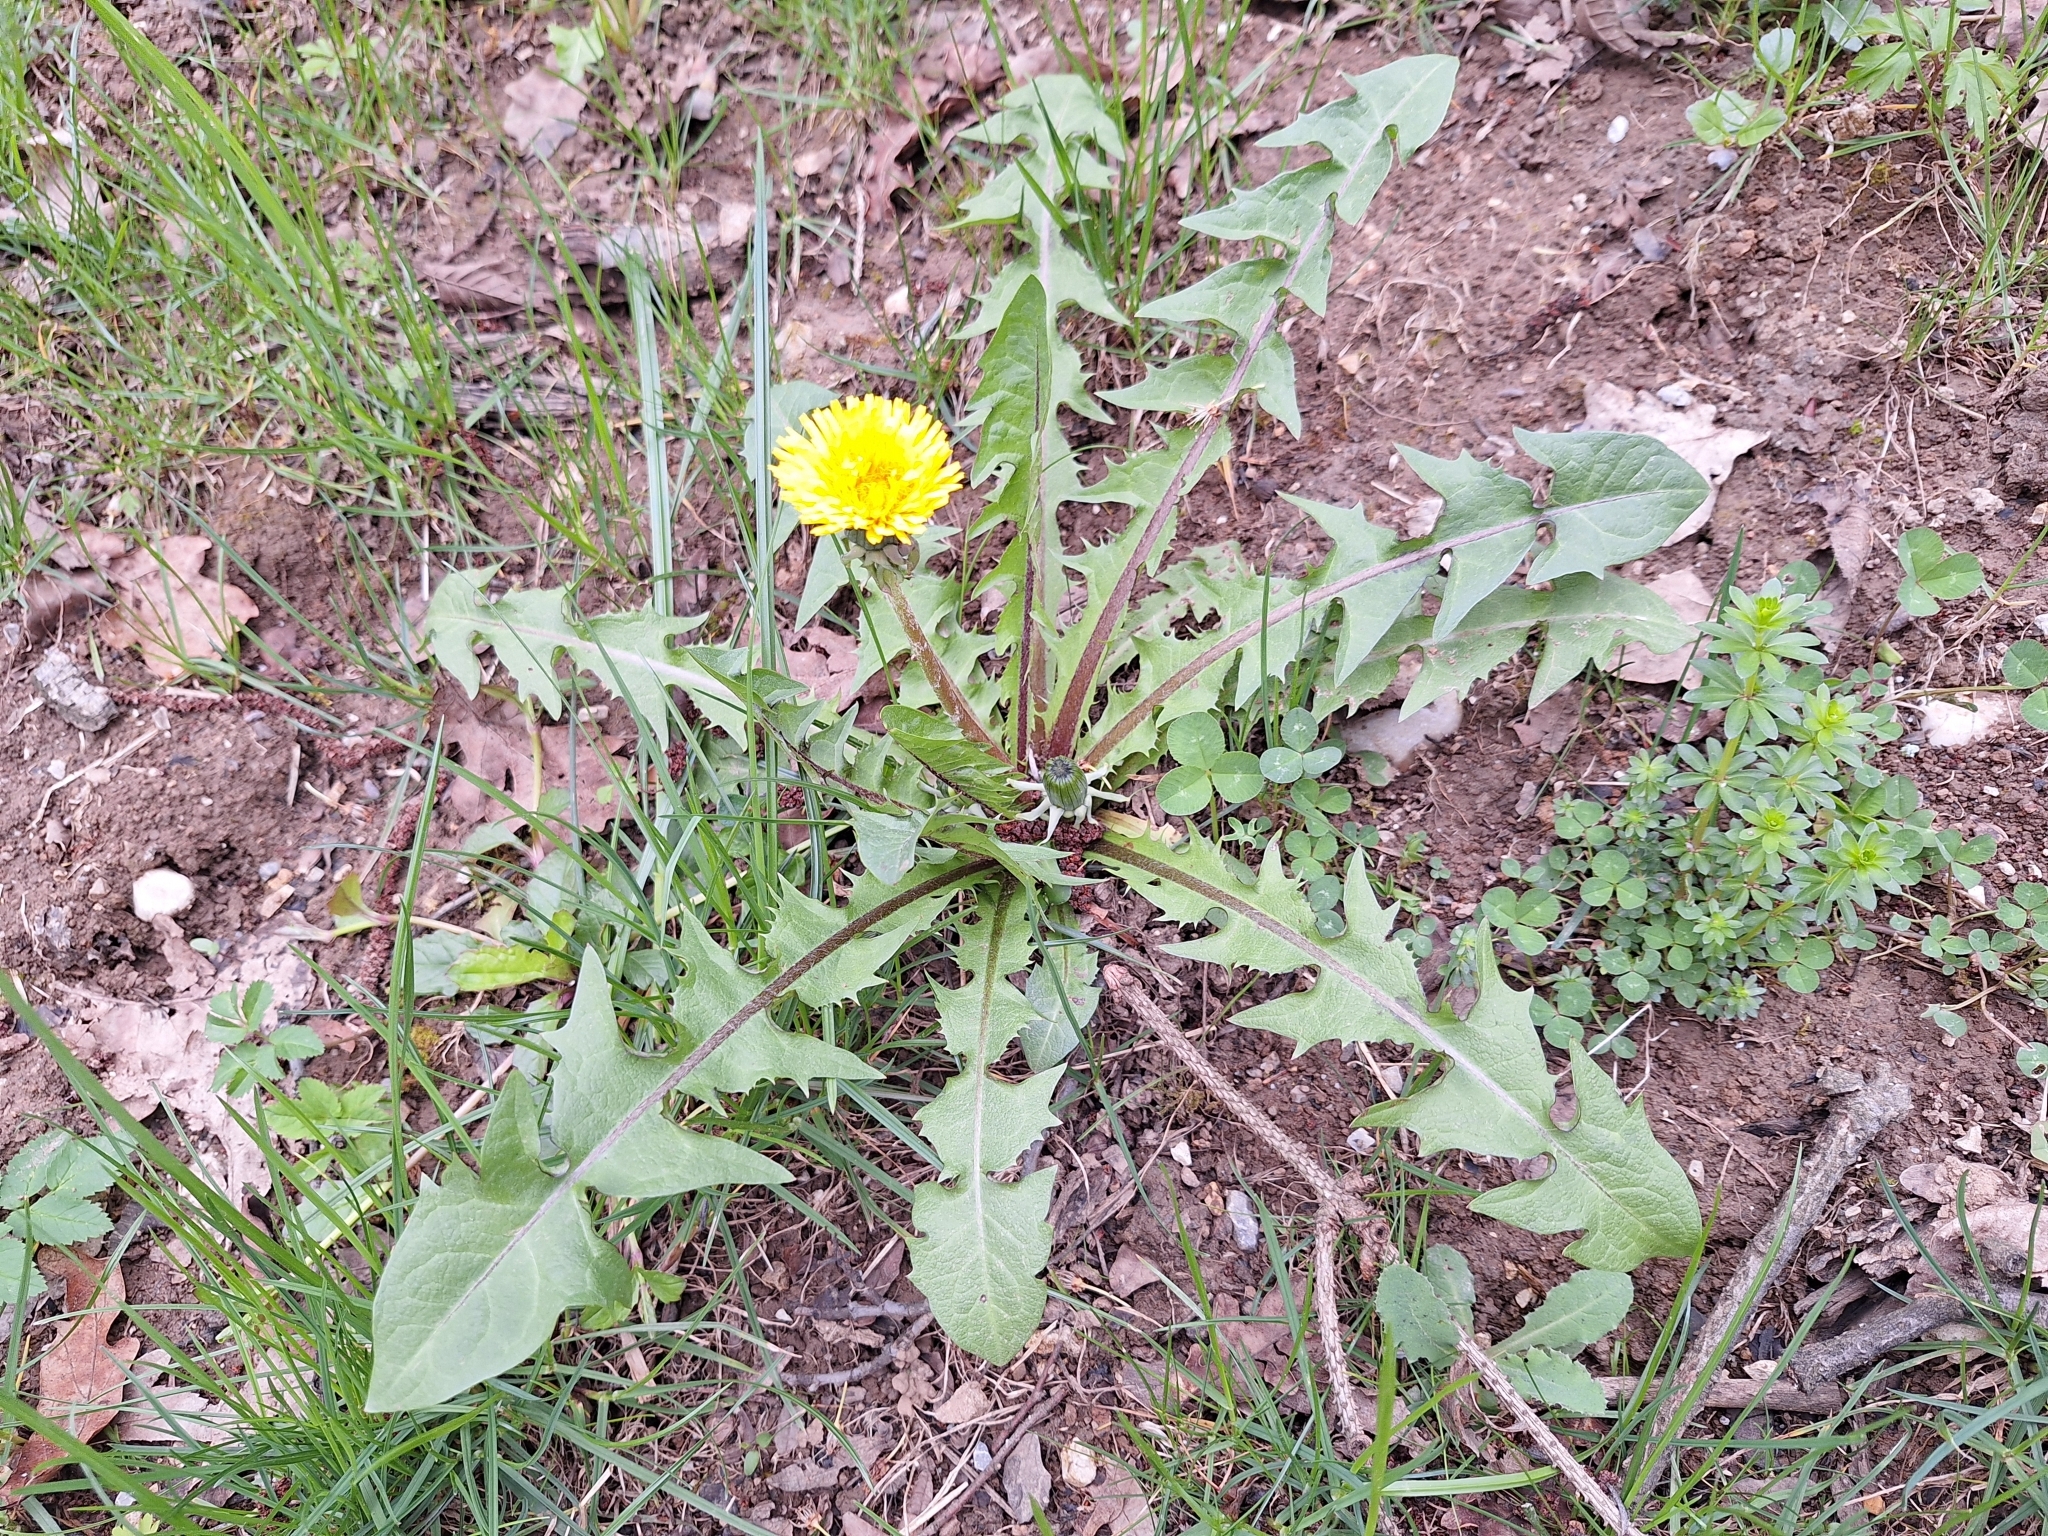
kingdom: Plantae
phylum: Tracheophyta
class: Magnoliopsida
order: Asterales
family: Asteraceae
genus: Taraxacum
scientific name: Taraxacum officinale
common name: Common dandelion
